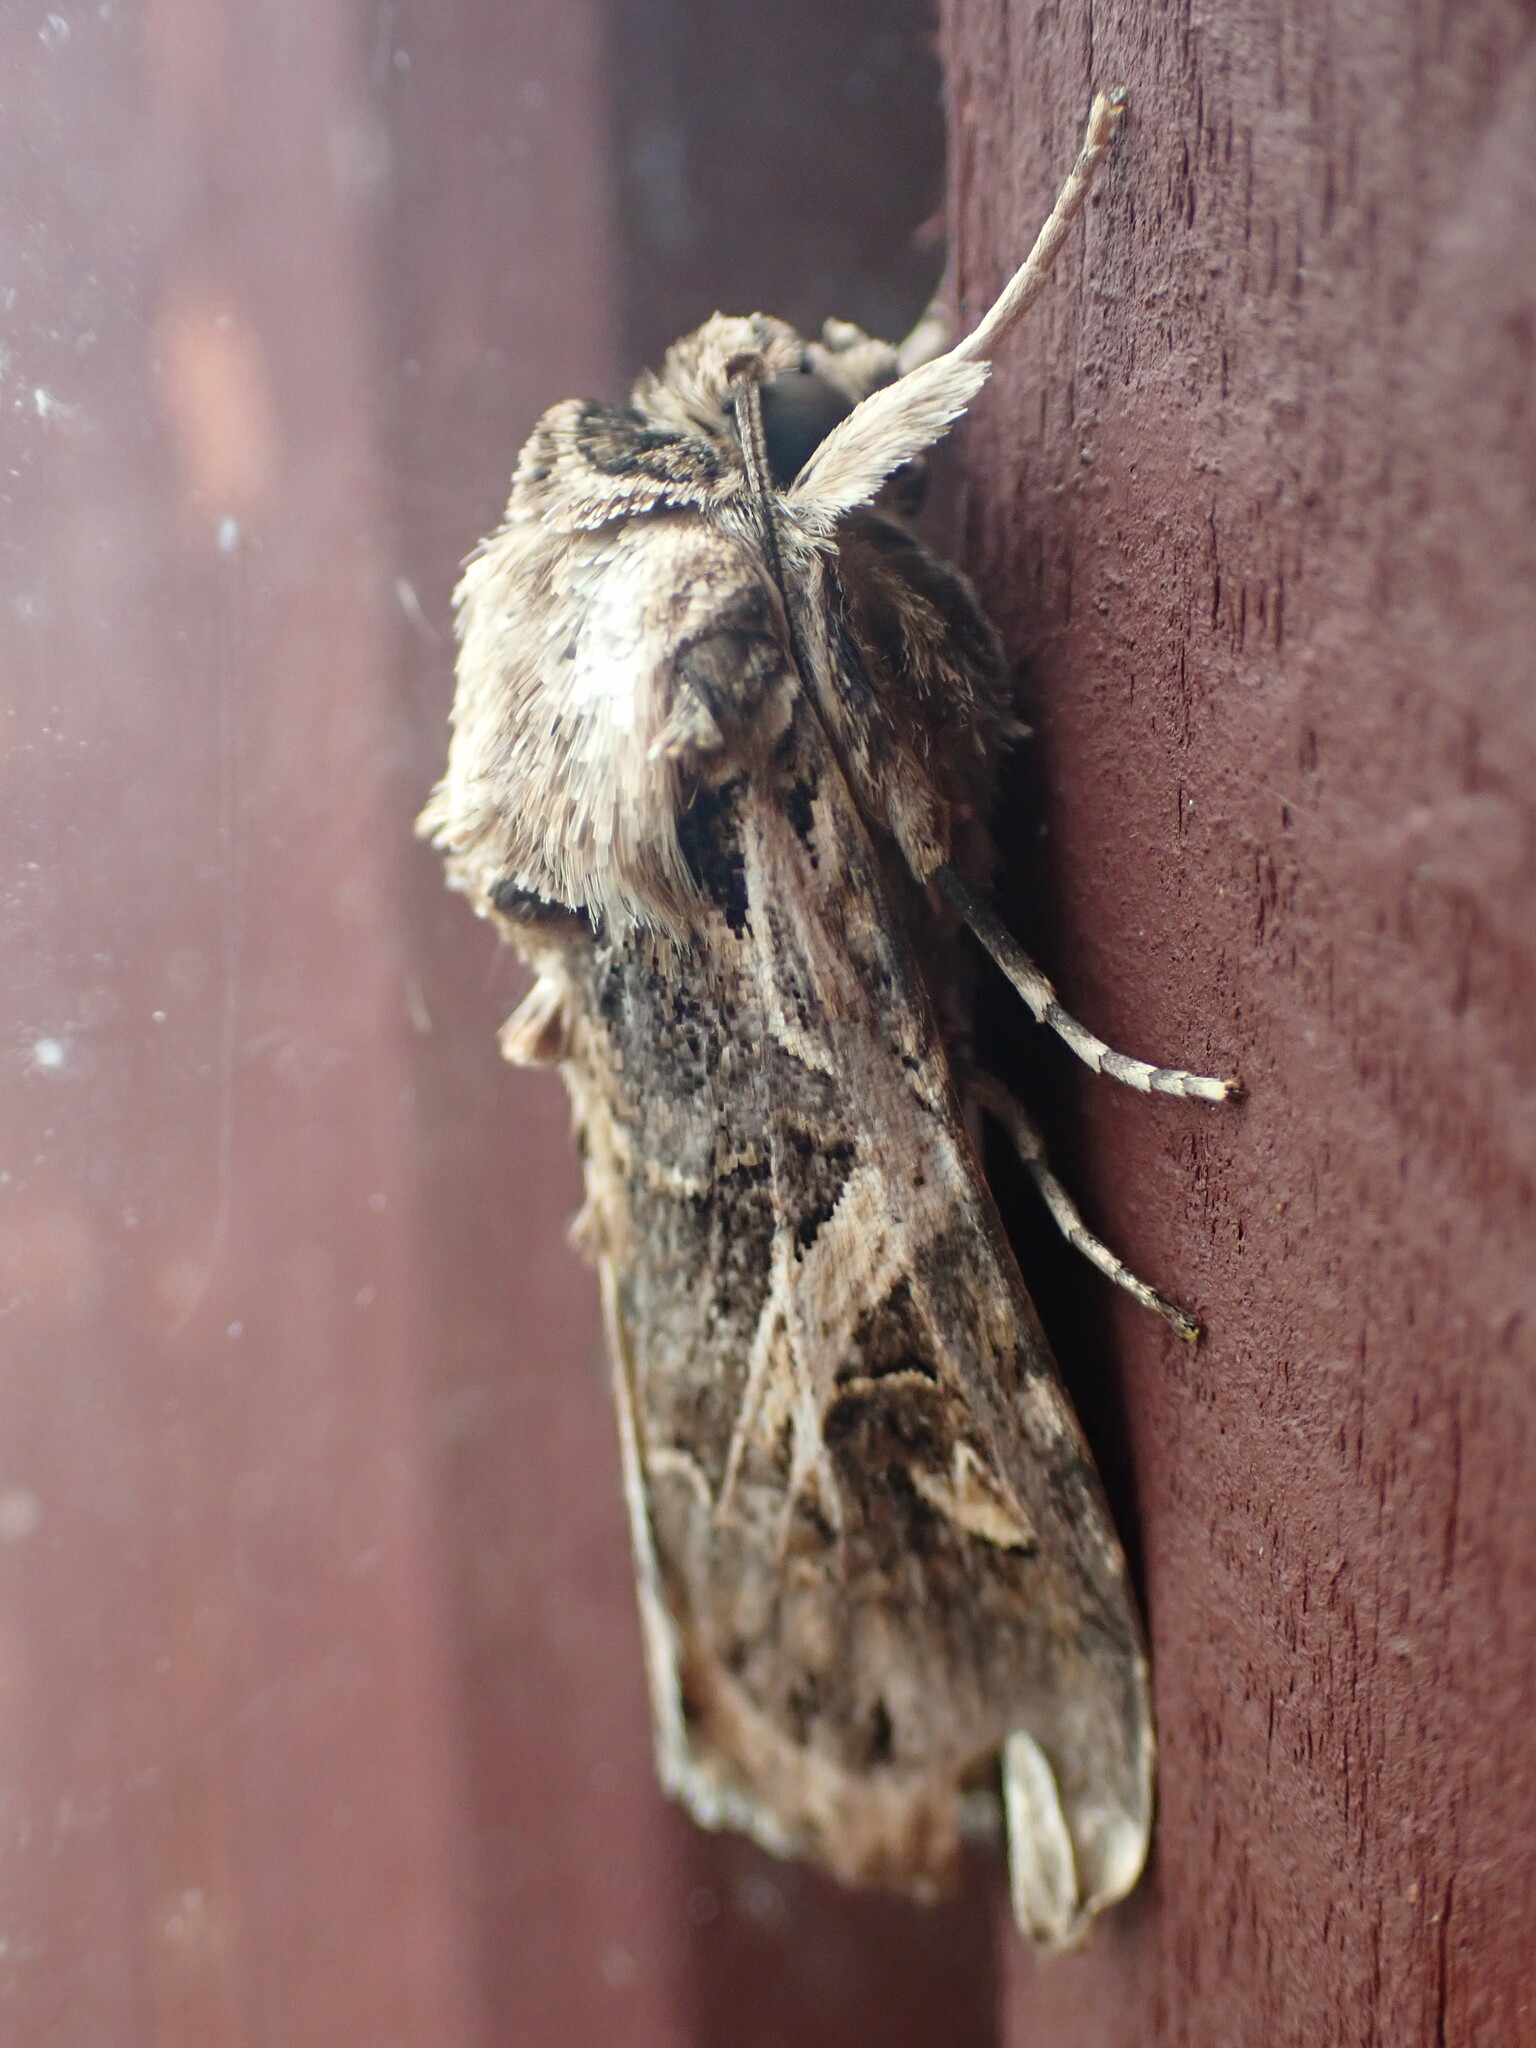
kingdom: Animalia
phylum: Arthropoda
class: Insecta
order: Lepidoptera
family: Noctuidae
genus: Spodoptera
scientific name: Spodoptera litura
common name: Asian cotton leafworm
